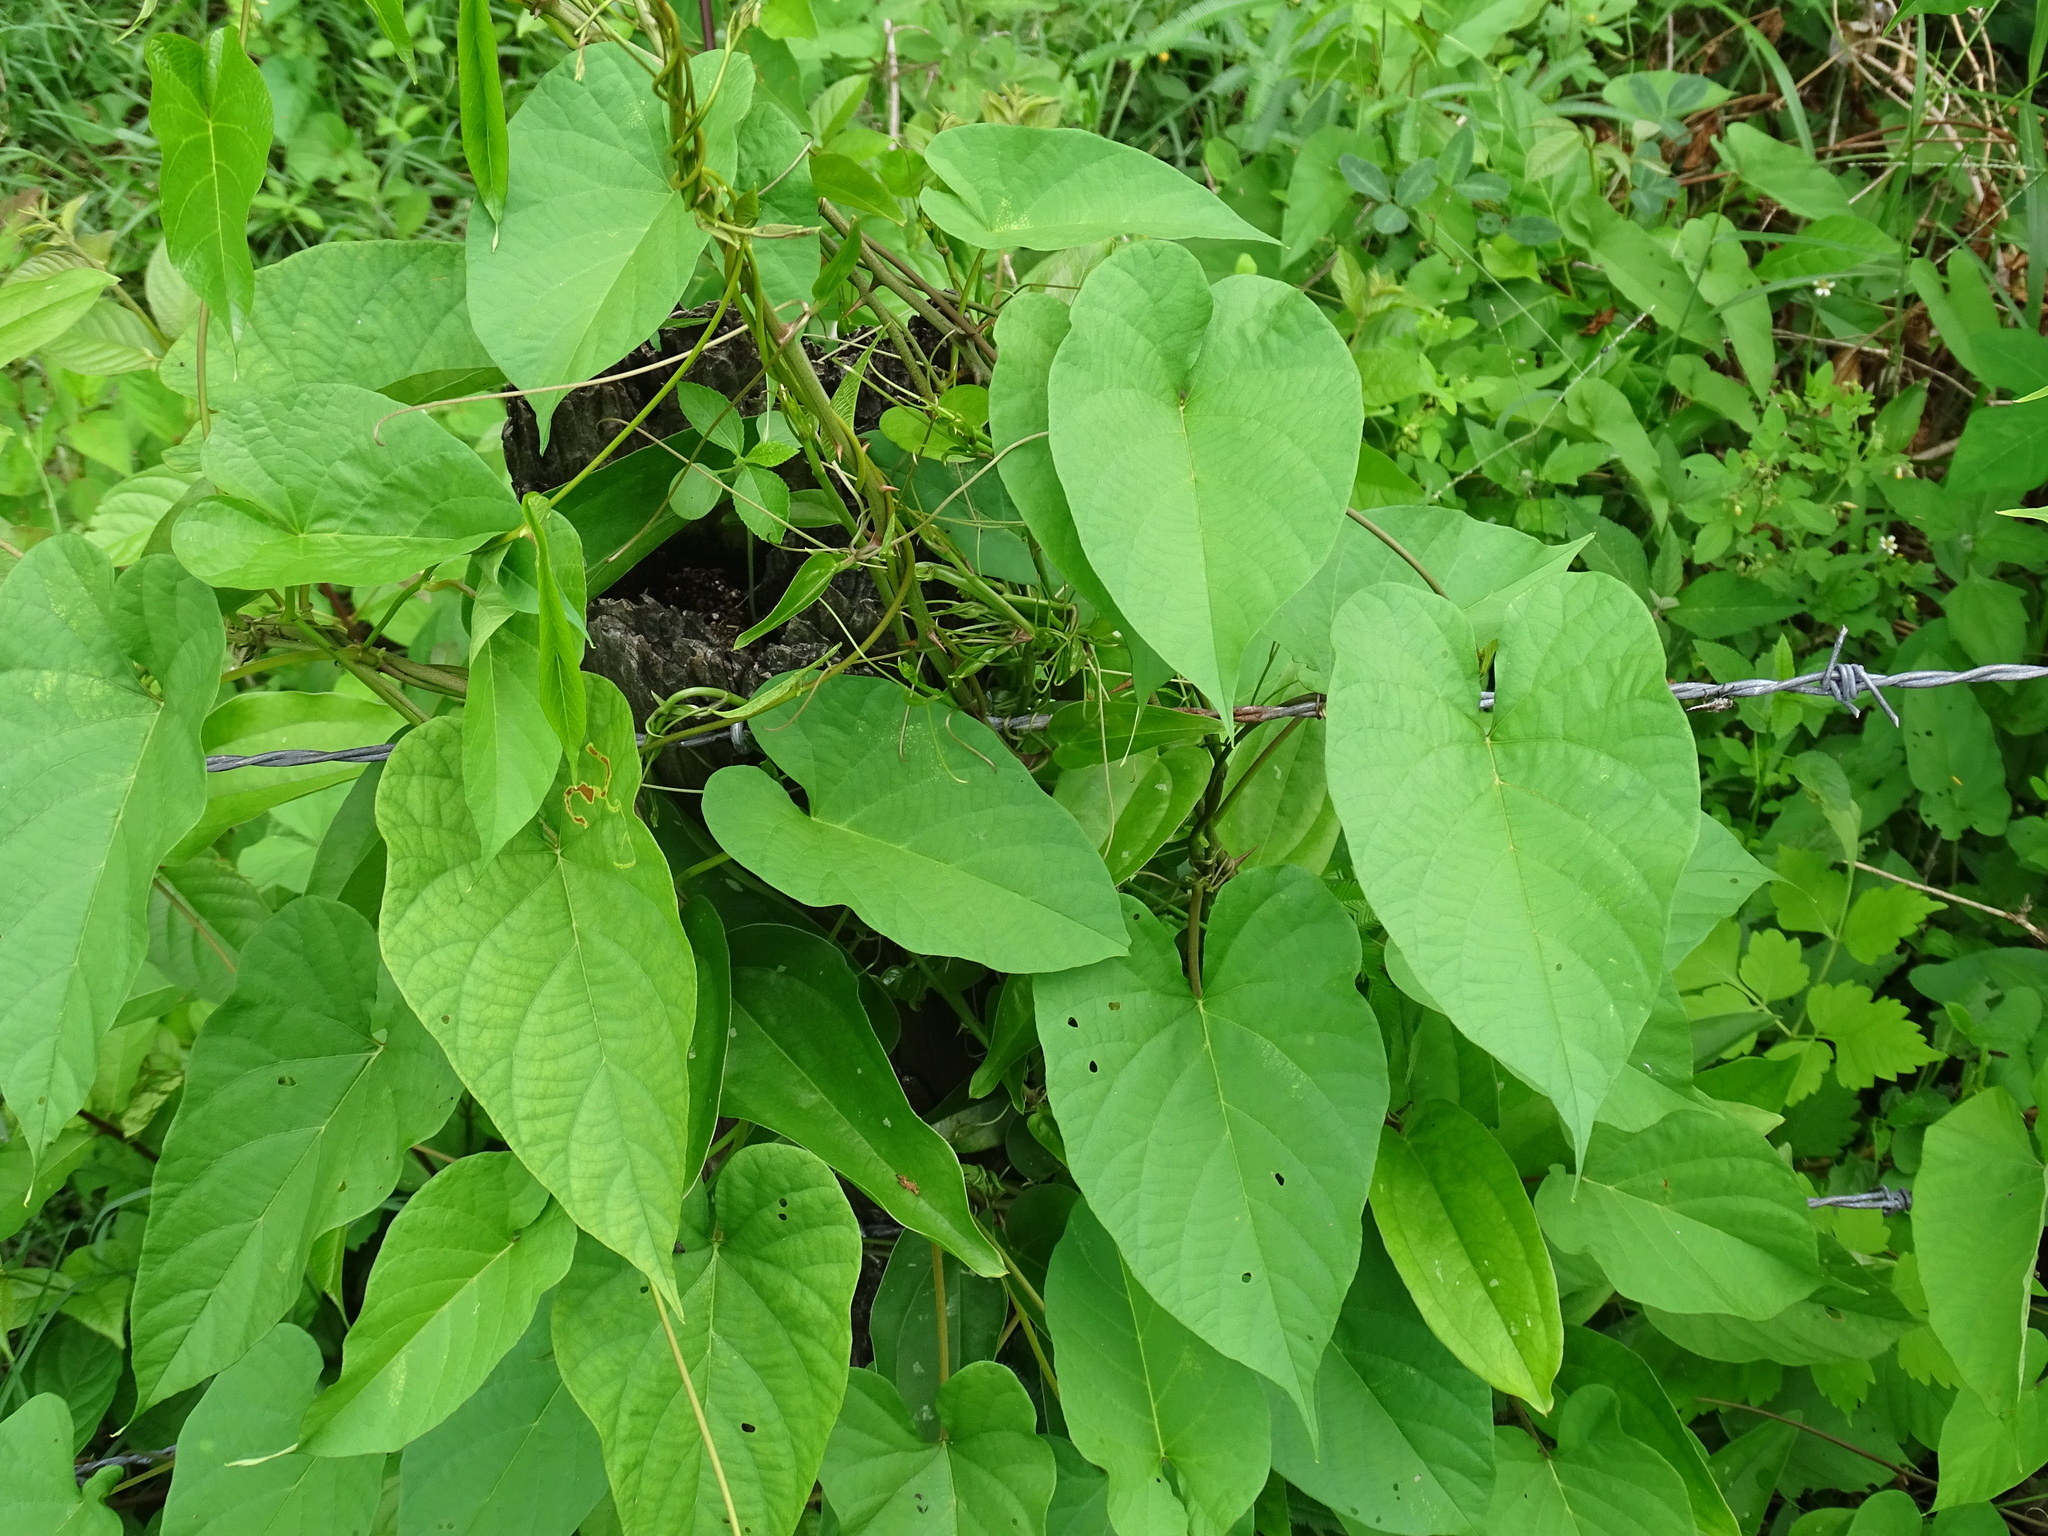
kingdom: Plantae
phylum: Tracheophyta
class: Magnoliopsida
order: Solanales
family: Convolvulaceae
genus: Camonea
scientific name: Camonea umbellata
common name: Hogvine
